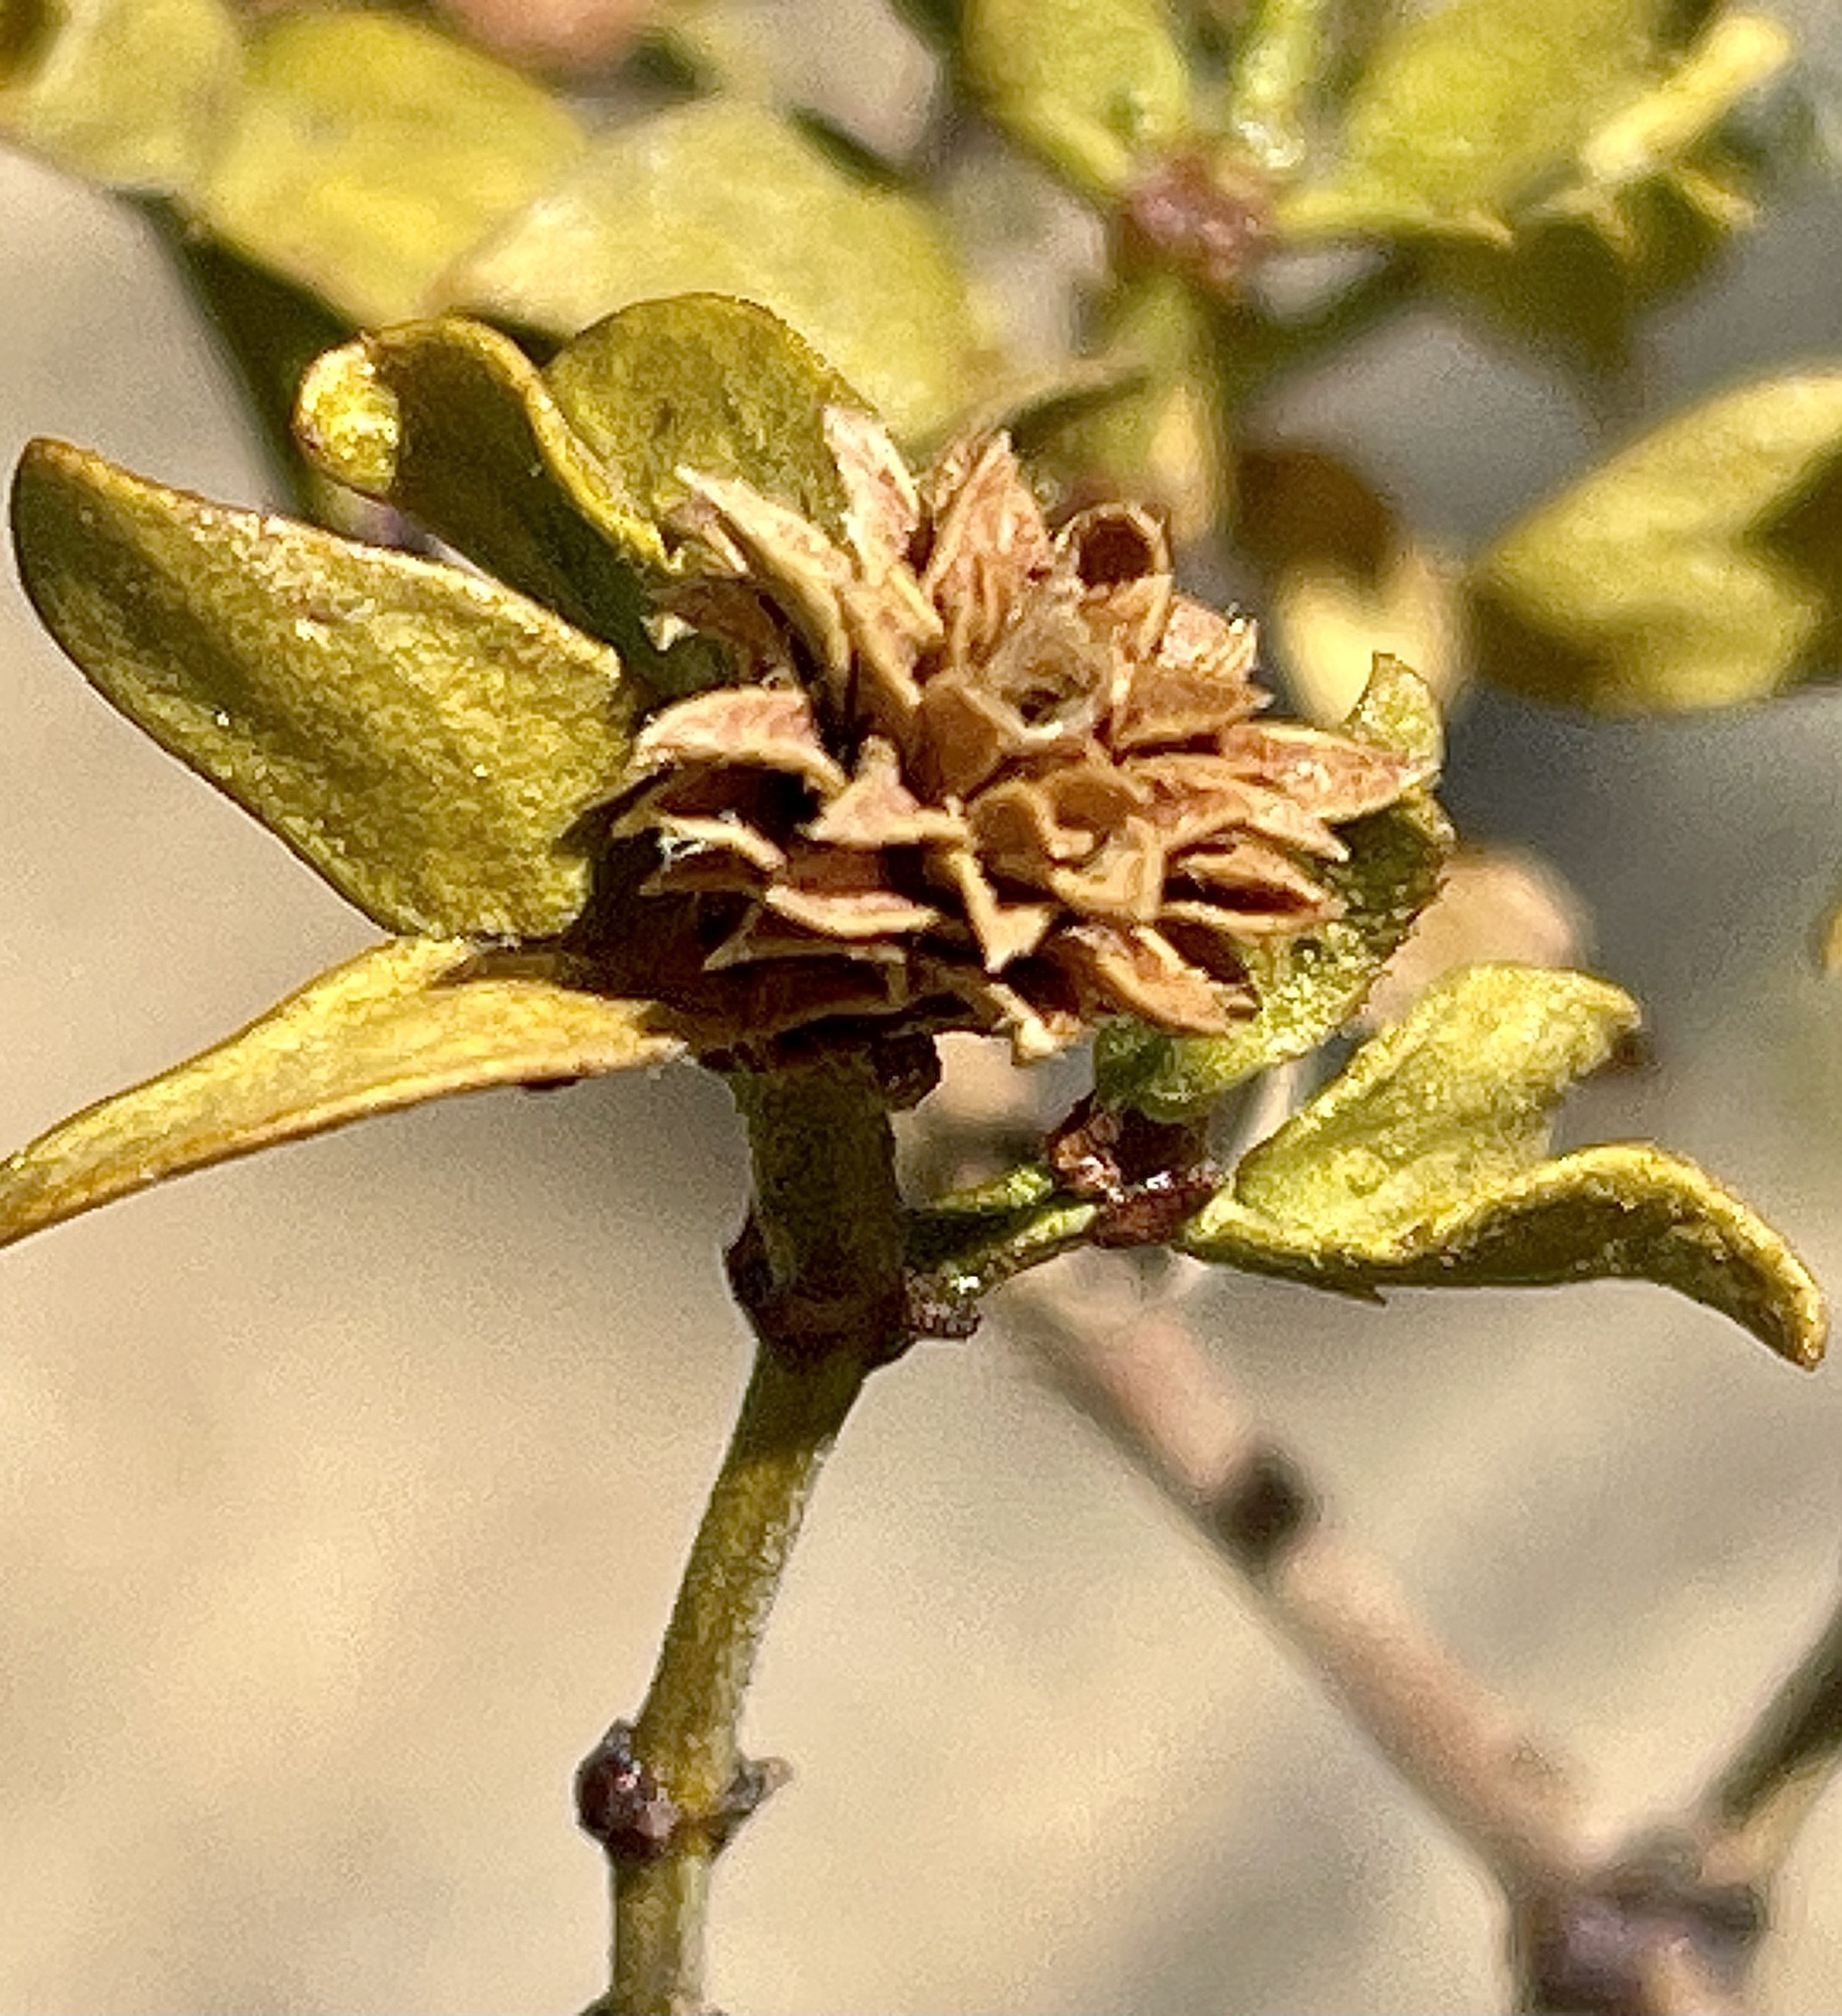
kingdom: Animalia
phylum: Arthropoda
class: Insecta
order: Diptera
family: Cecidomyiidae
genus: Asphondylia
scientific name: Asphondylia rosetta
